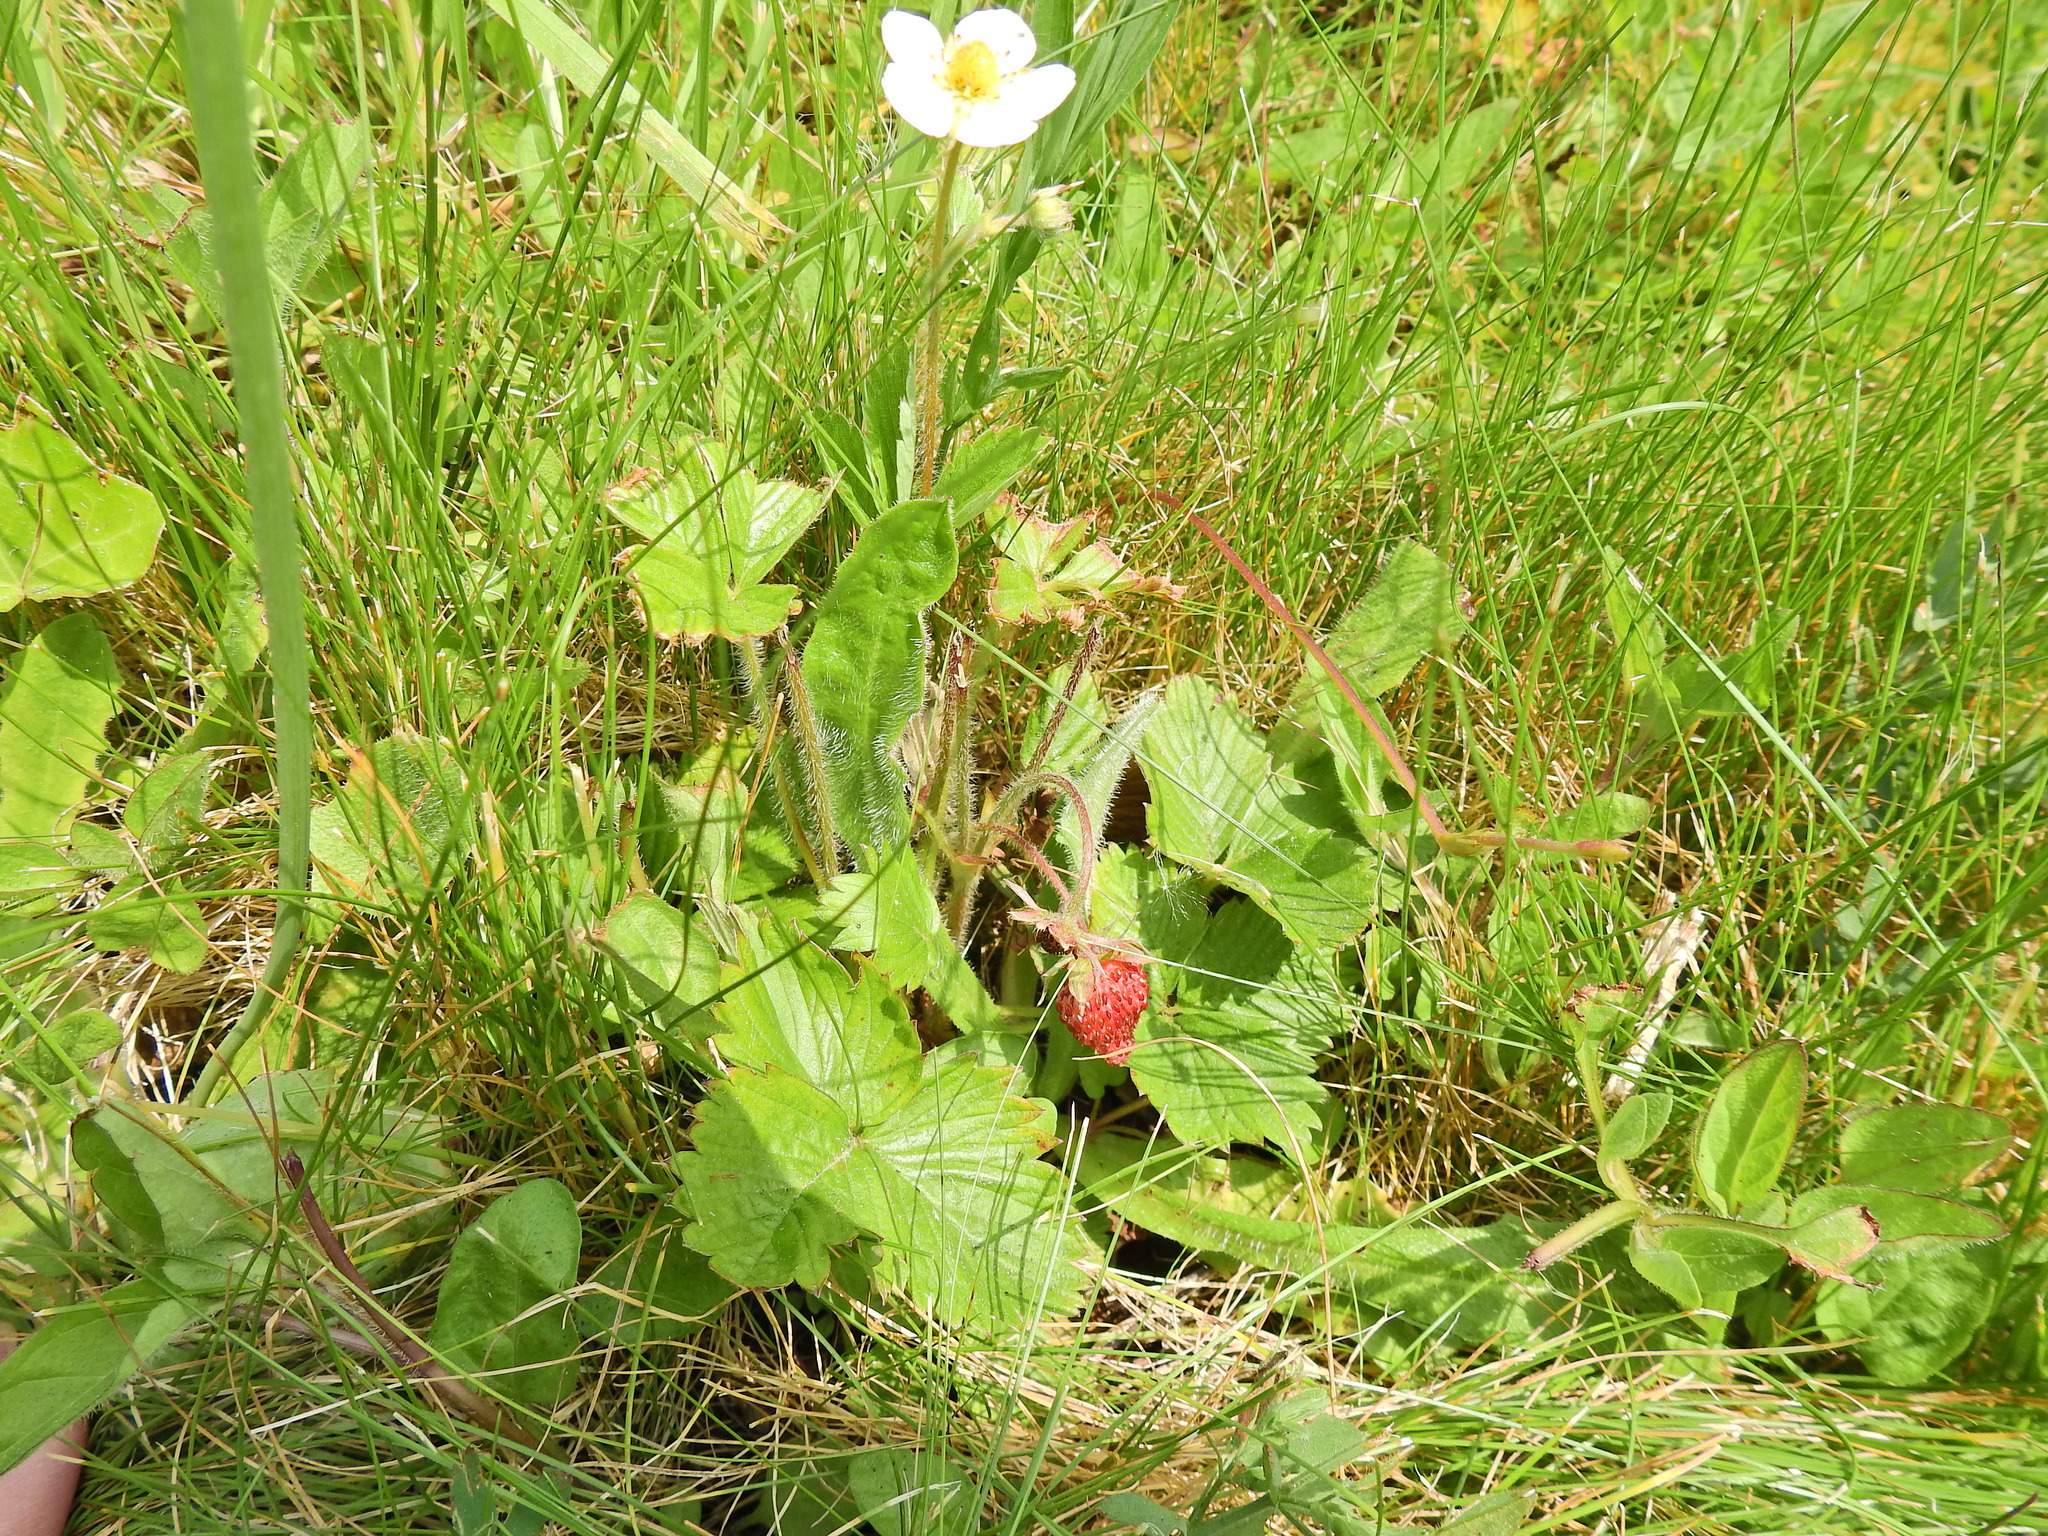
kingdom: Plantae
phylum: Tracheophyta
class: Magnoliopsida
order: Rosales
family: Rosaceae
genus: Fragaria
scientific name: Fragaria vesca
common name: Wild strawberry
